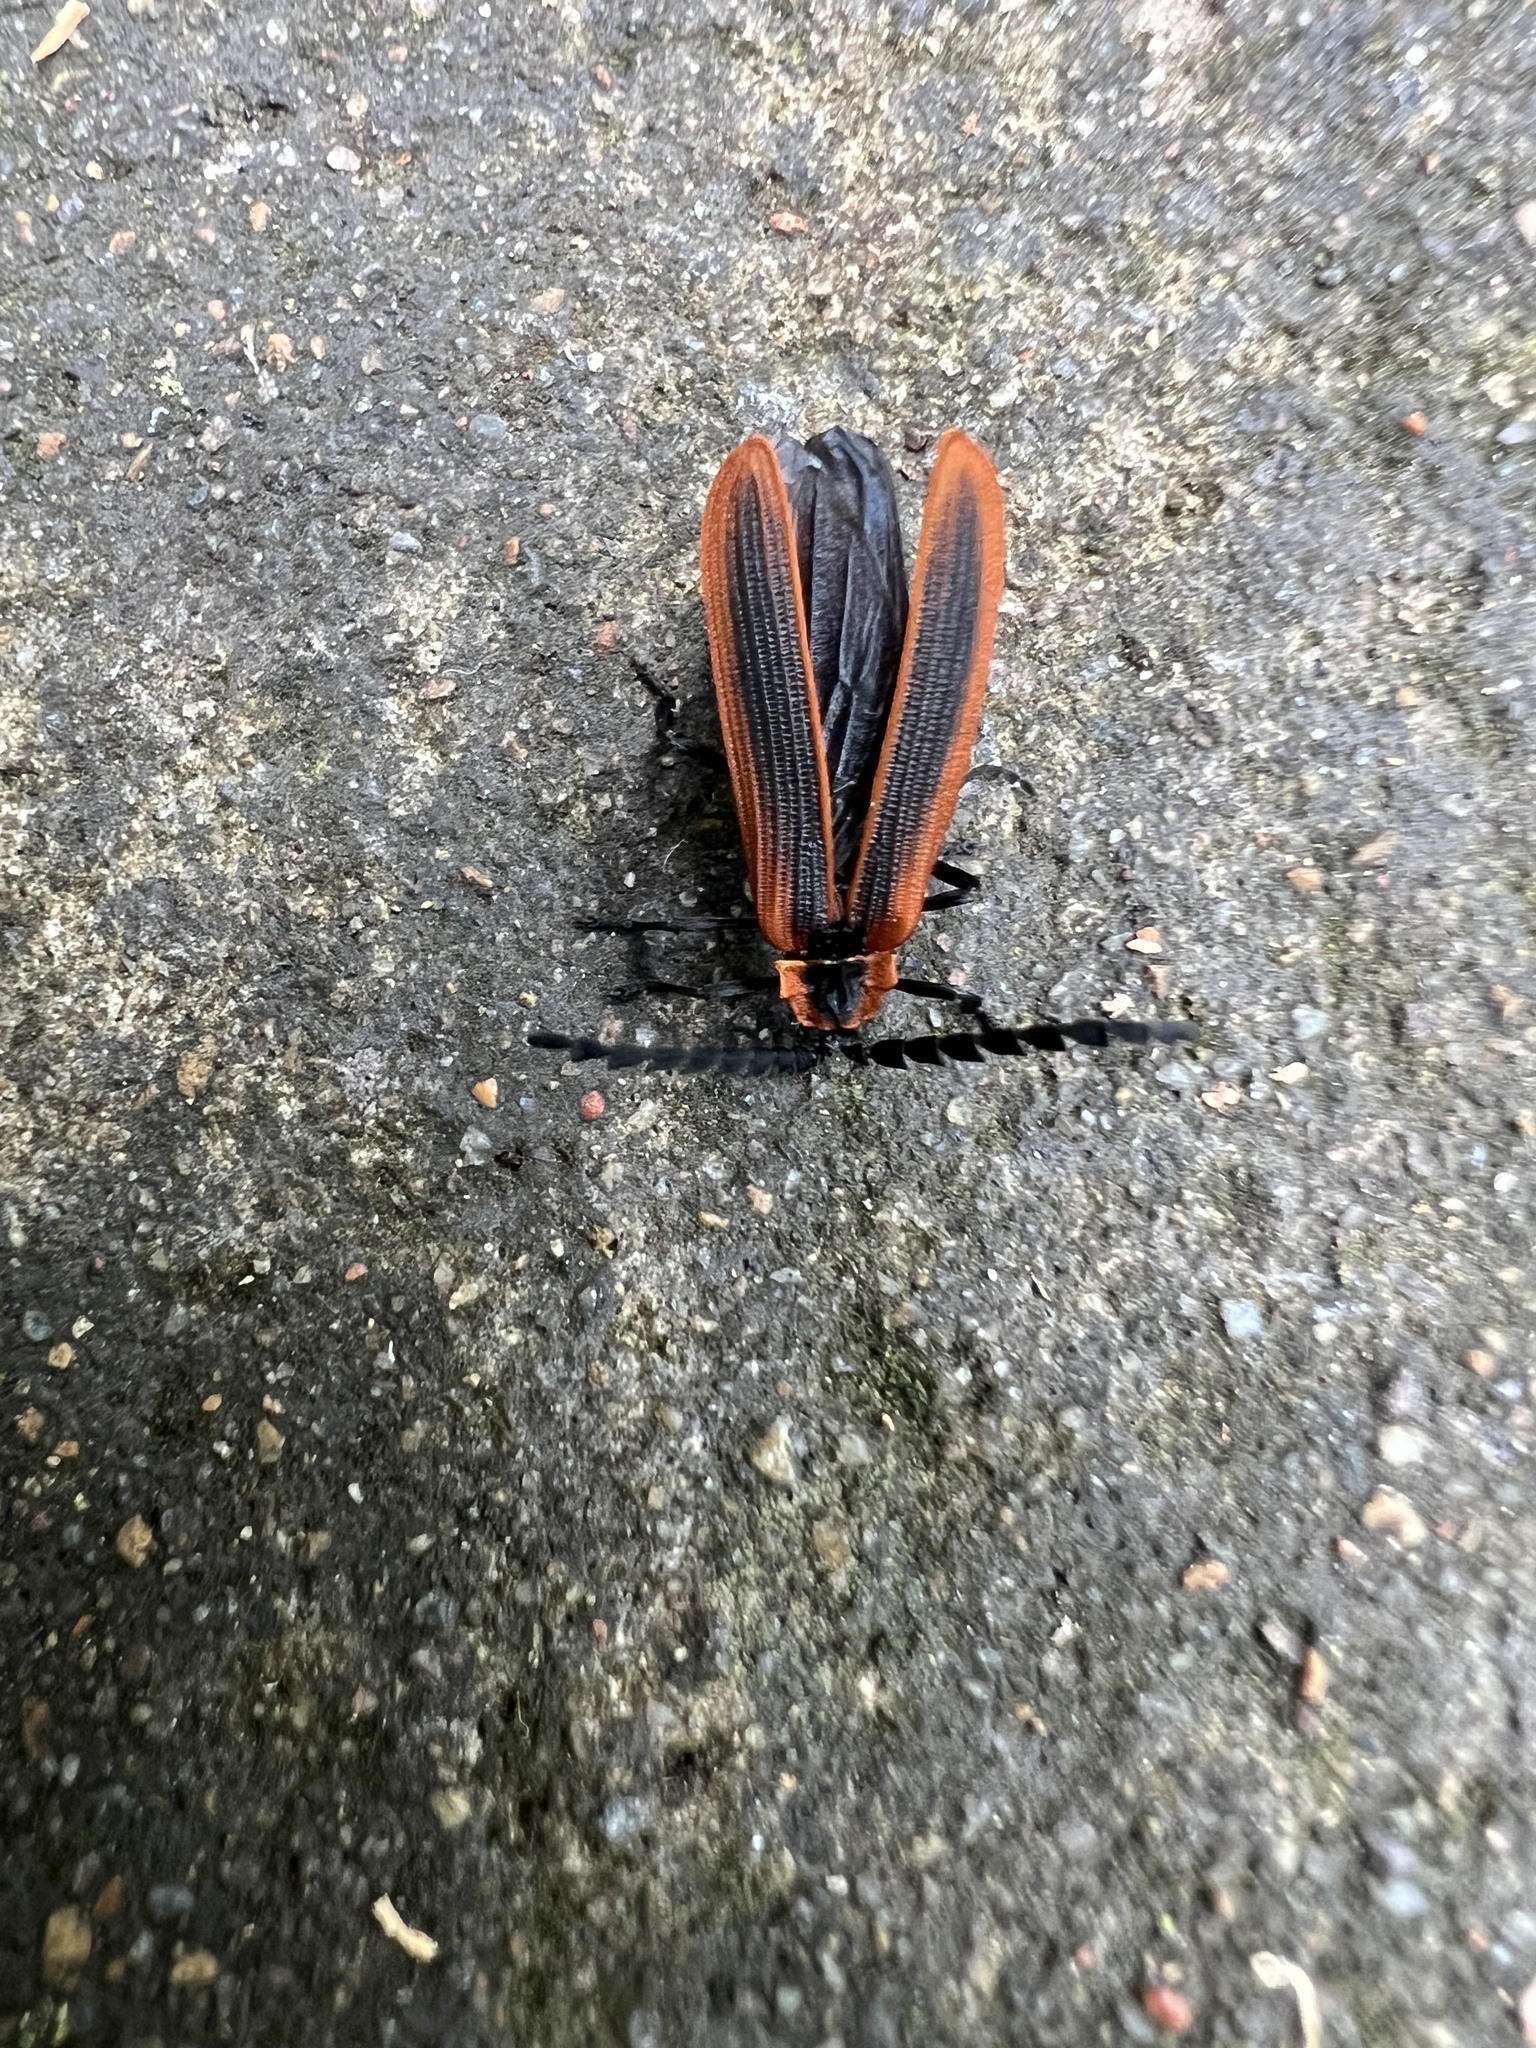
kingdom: Animalia
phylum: Arthropoda
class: Insecta
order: Coleoptera
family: Lycidae
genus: Trichalus
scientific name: Trichalus
